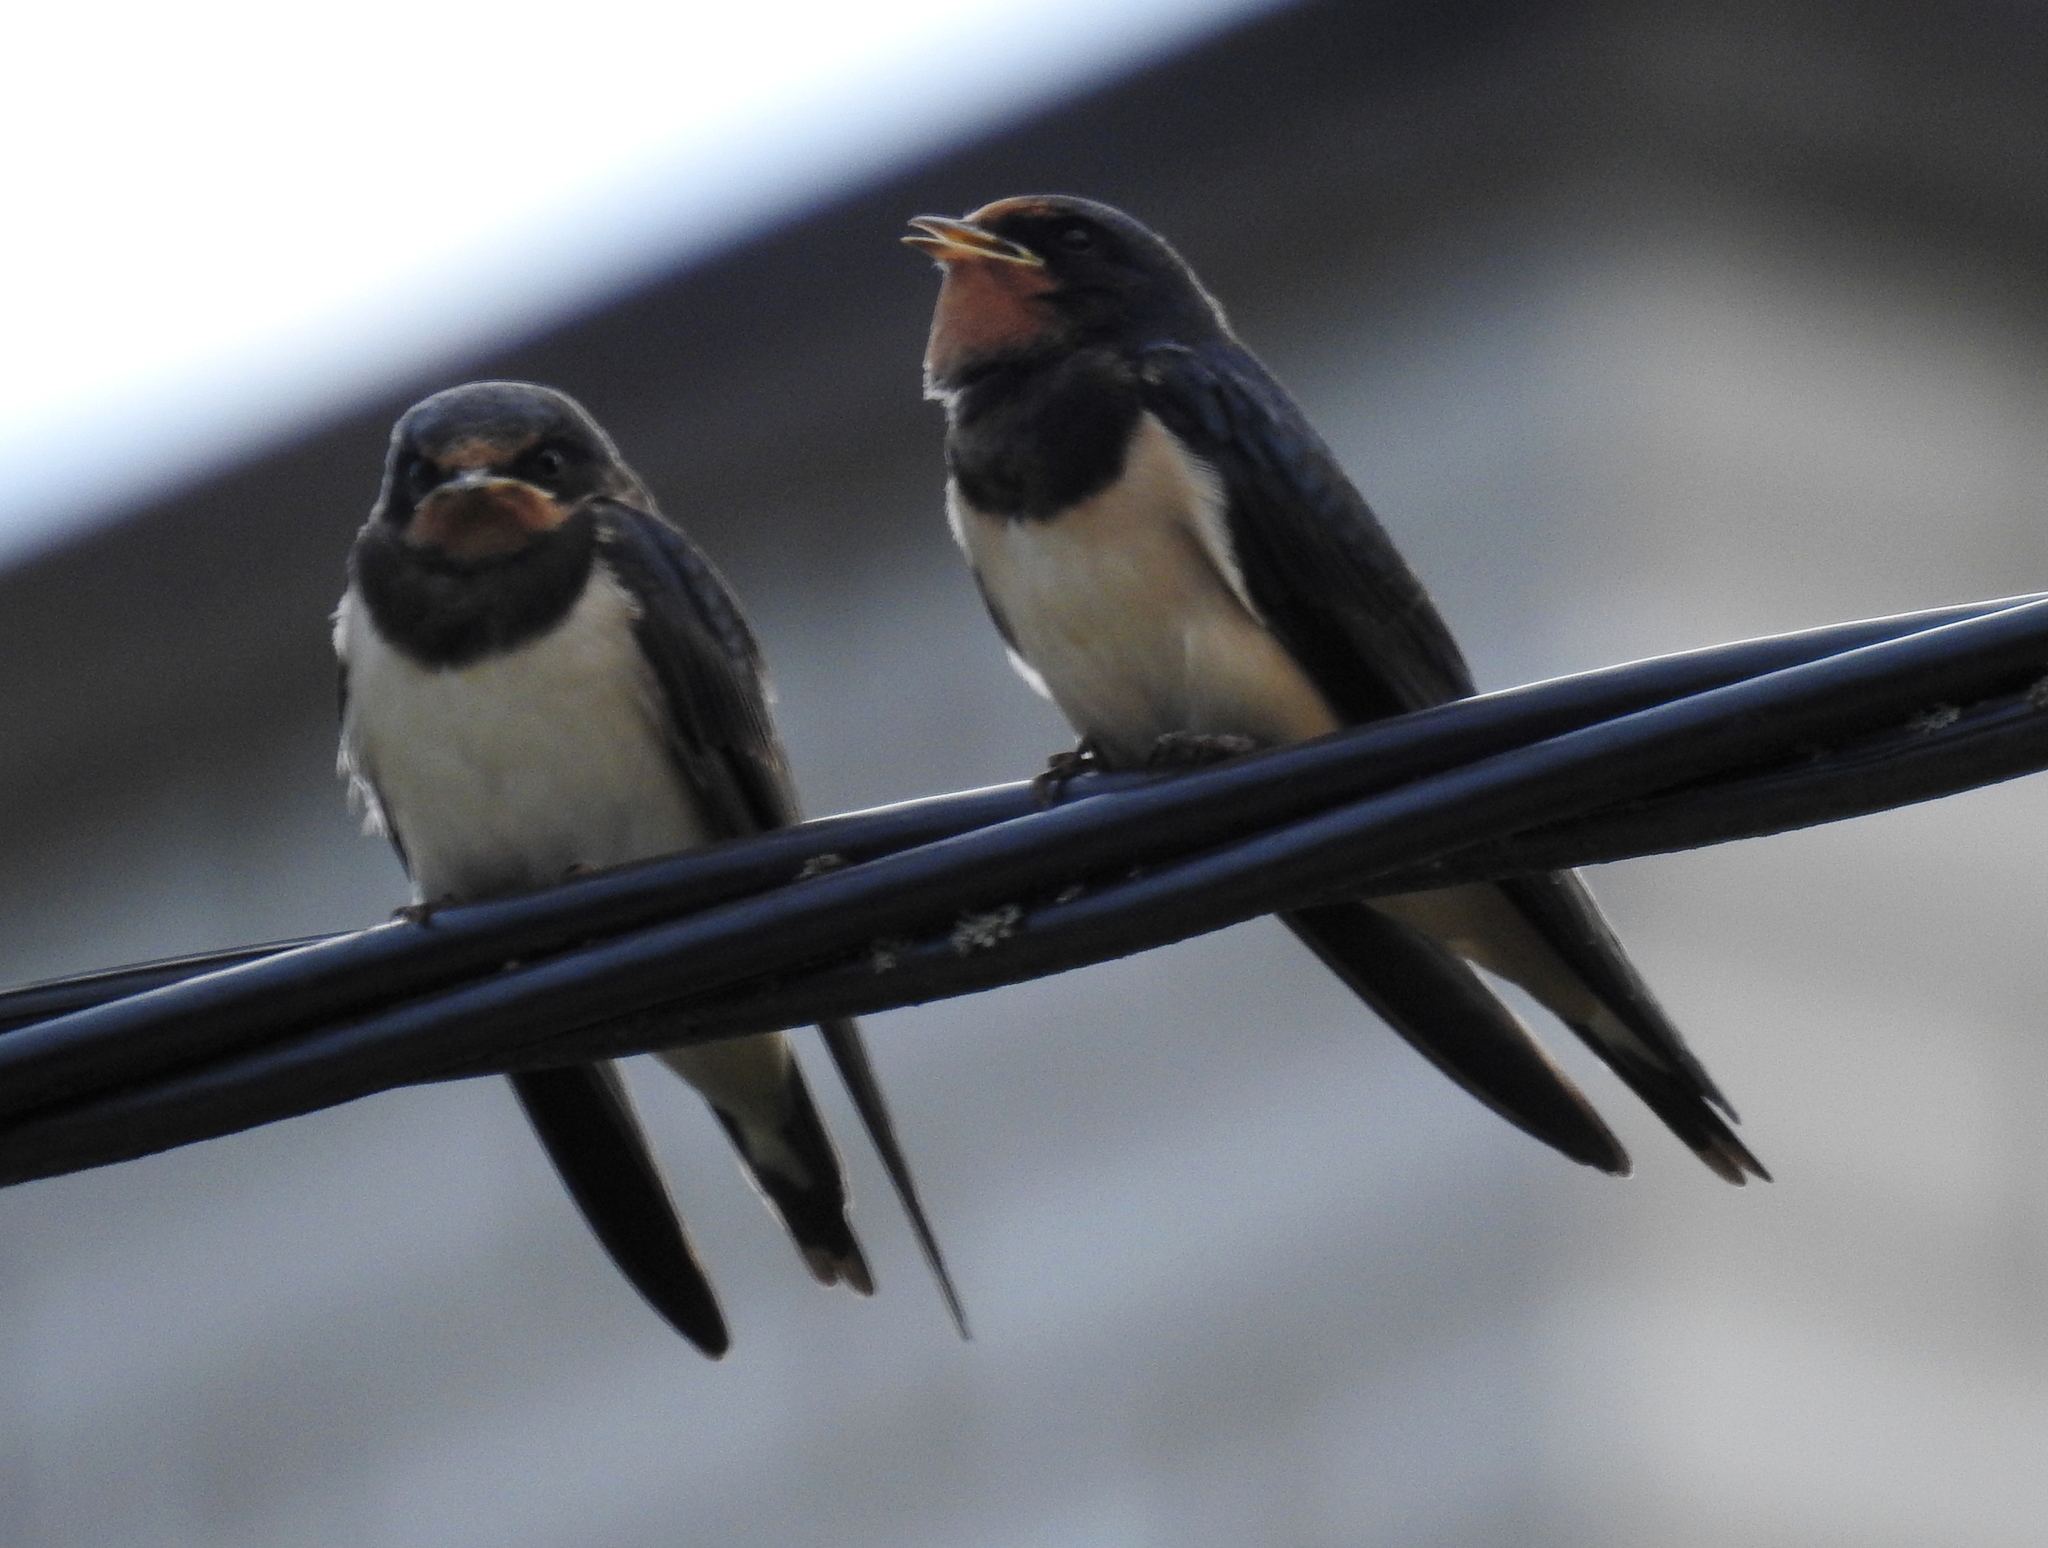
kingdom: Animalia
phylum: Chordata
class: Aves
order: Passeriformes
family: Hirundinidae
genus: Hirundo
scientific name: Hirundo rustica
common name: Barn swallow
